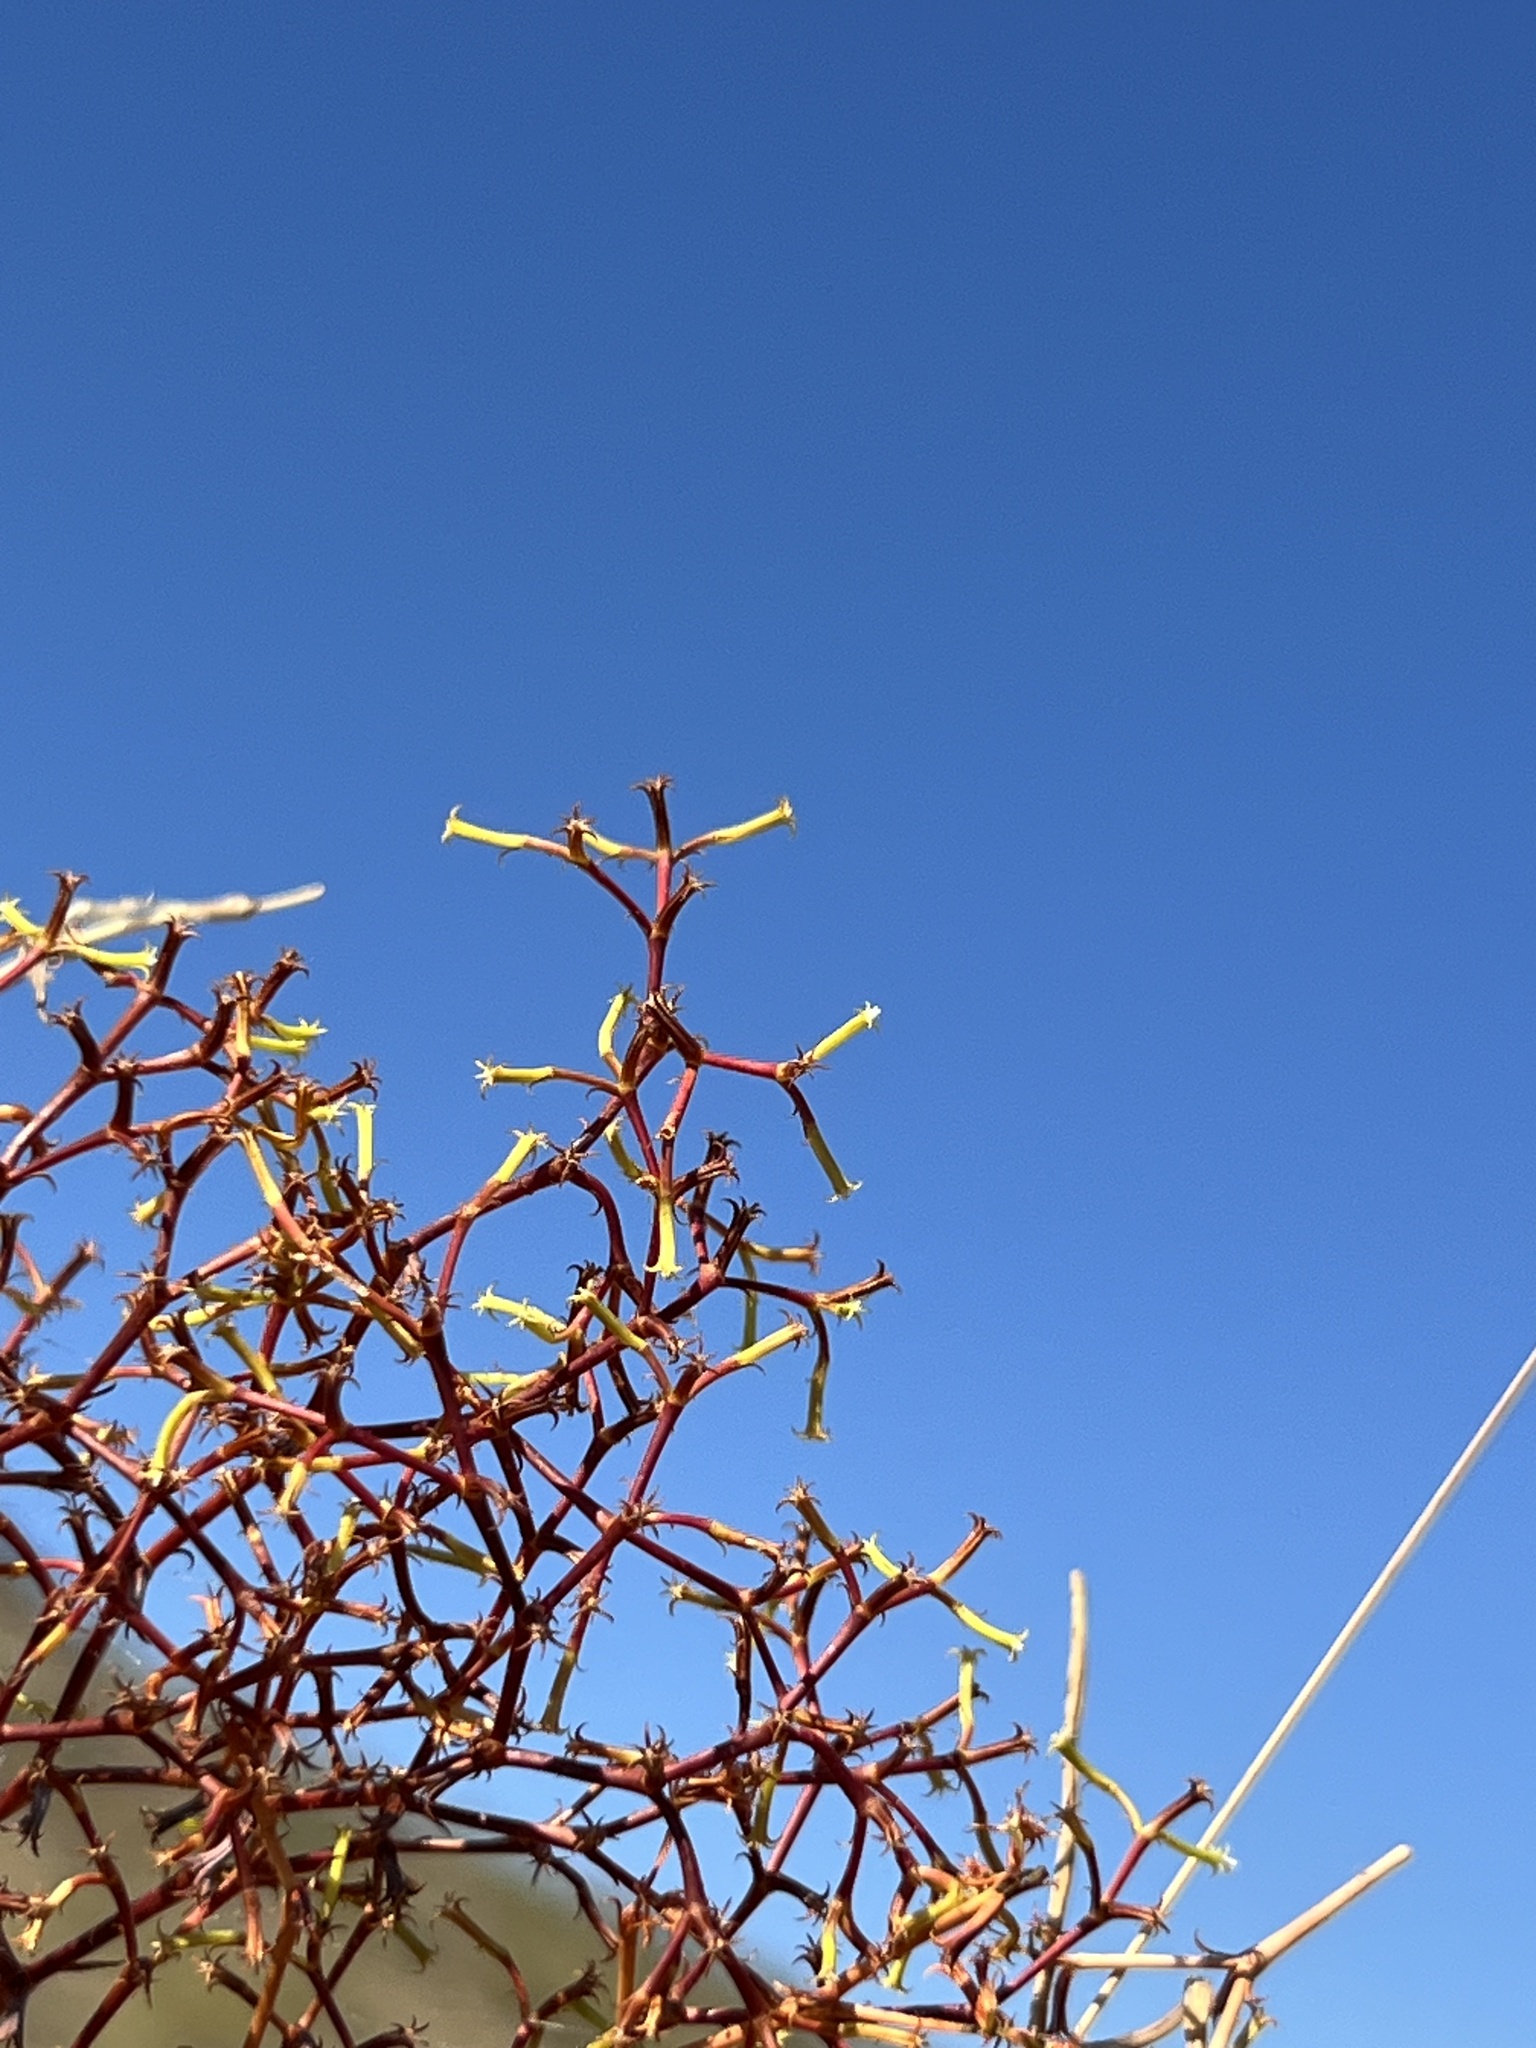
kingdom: Plantae
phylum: Tracheophyta
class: Magnoliopsida
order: Caryophyllales
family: Polygonaceae
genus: Chorizanthe
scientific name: Chorizanthe brevicornu
